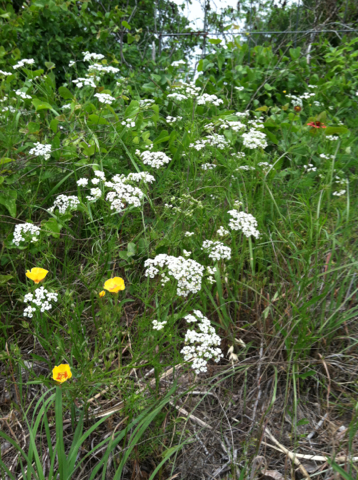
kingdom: Plantae
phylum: Tracheophyta
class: Magnoliopsida
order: Apiales
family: Apiaceae
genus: Atrema
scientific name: Atrema americanum
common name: Prairie-bishop
